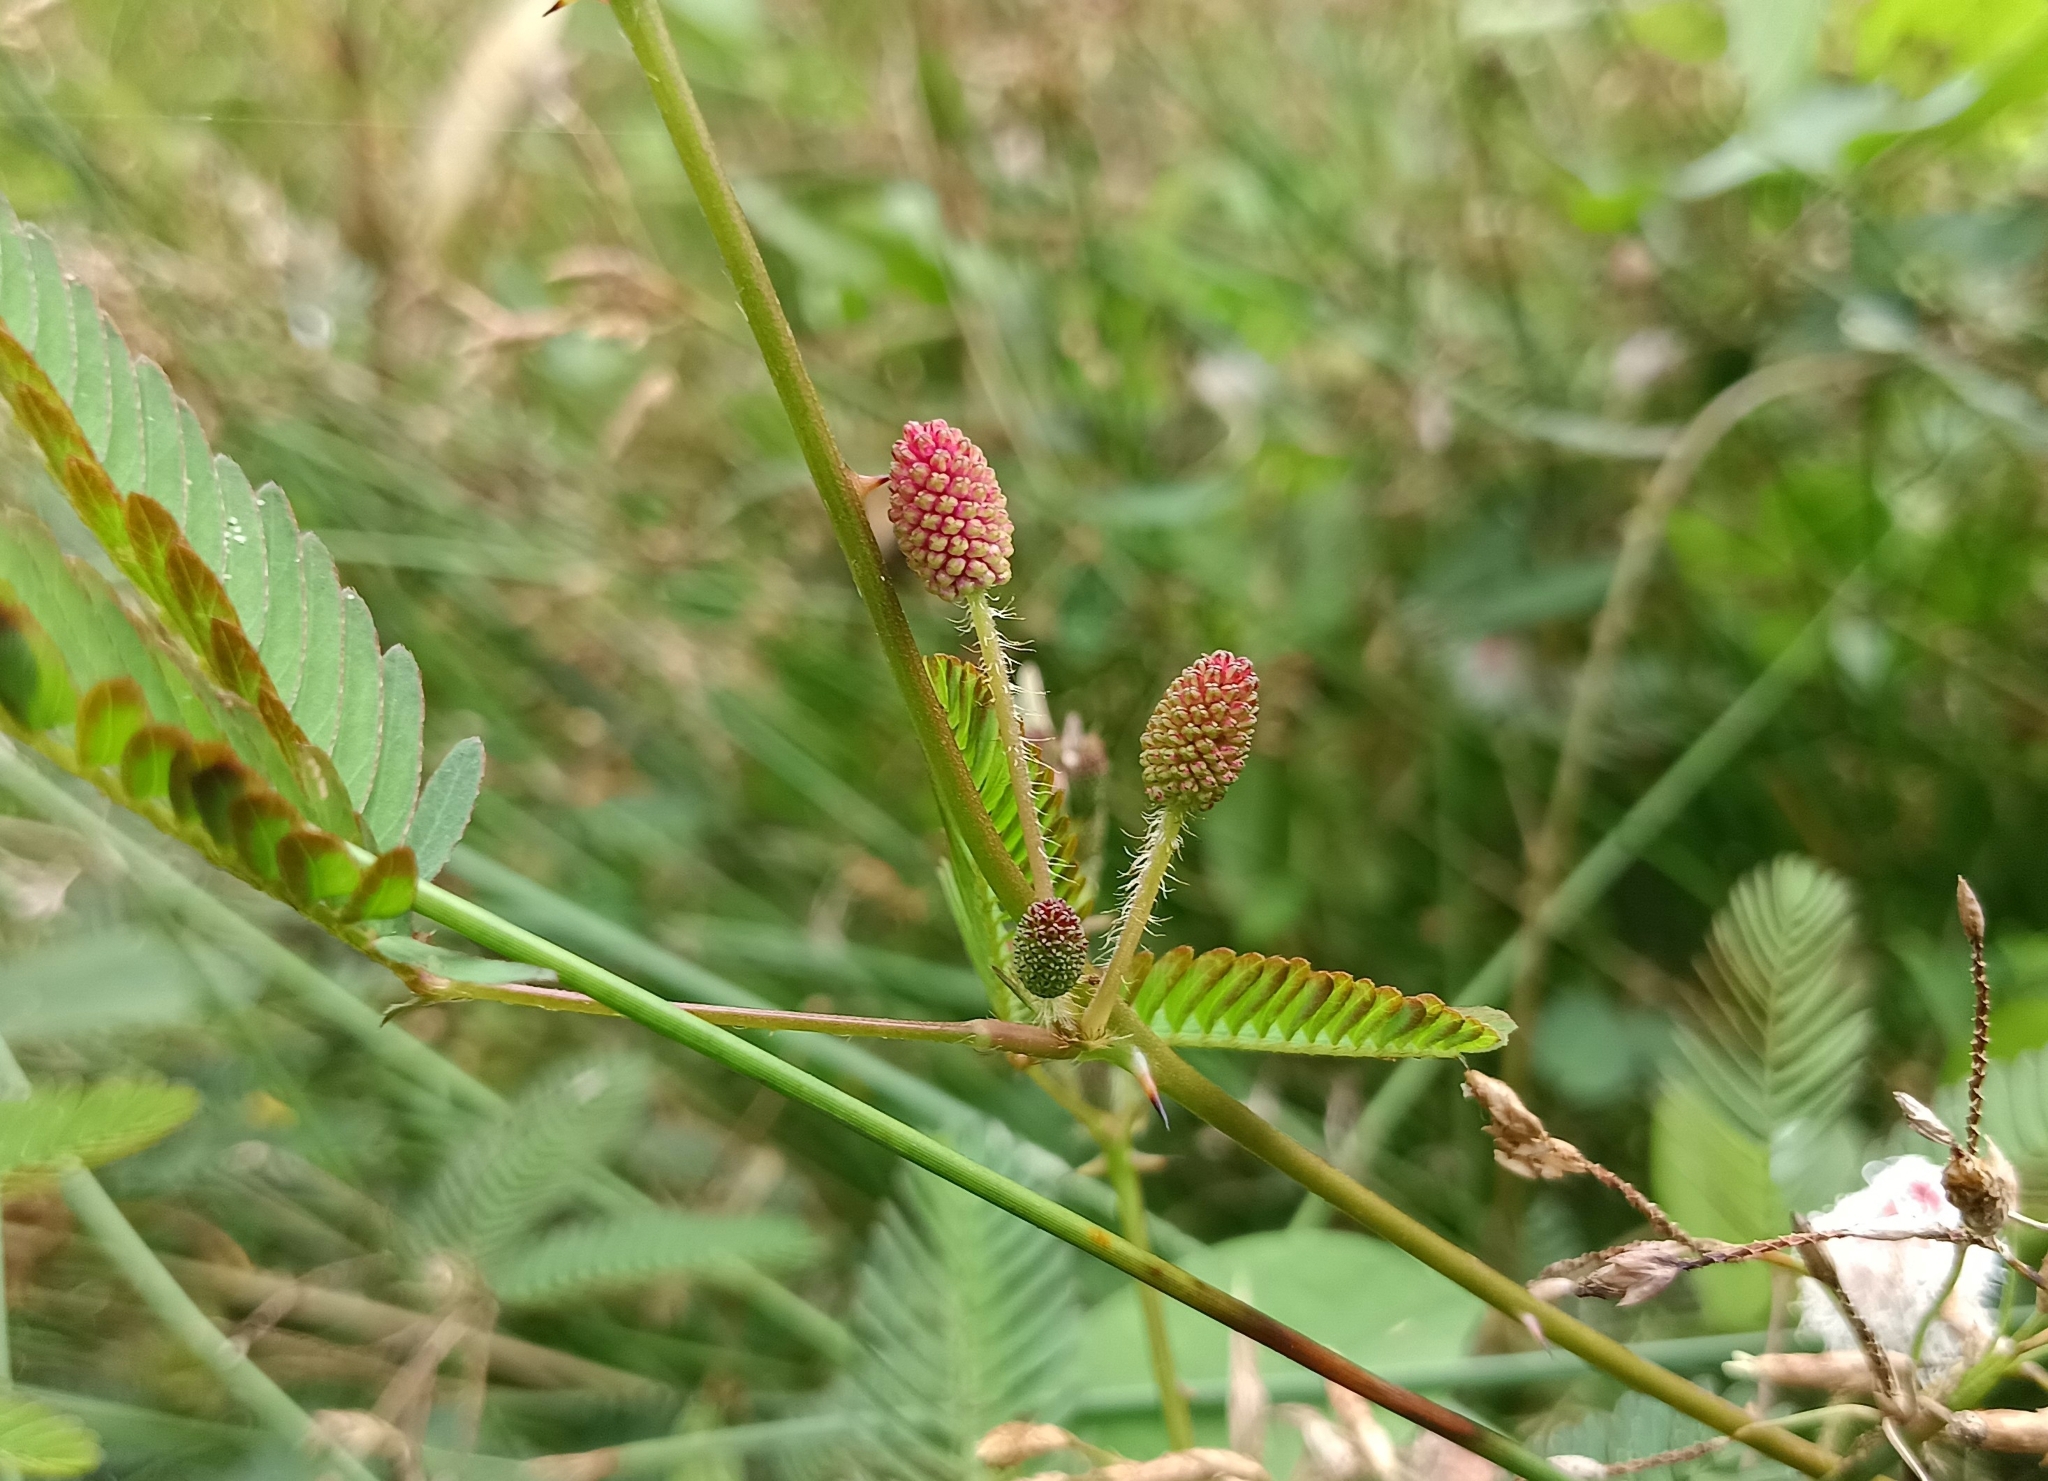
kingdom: Plantae
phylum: Tracheophyta
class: Magnoliopsida
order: Fabales
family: Fabaceae
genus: Mimosa
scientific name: Mimosa pudica
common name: Sensitive plant
